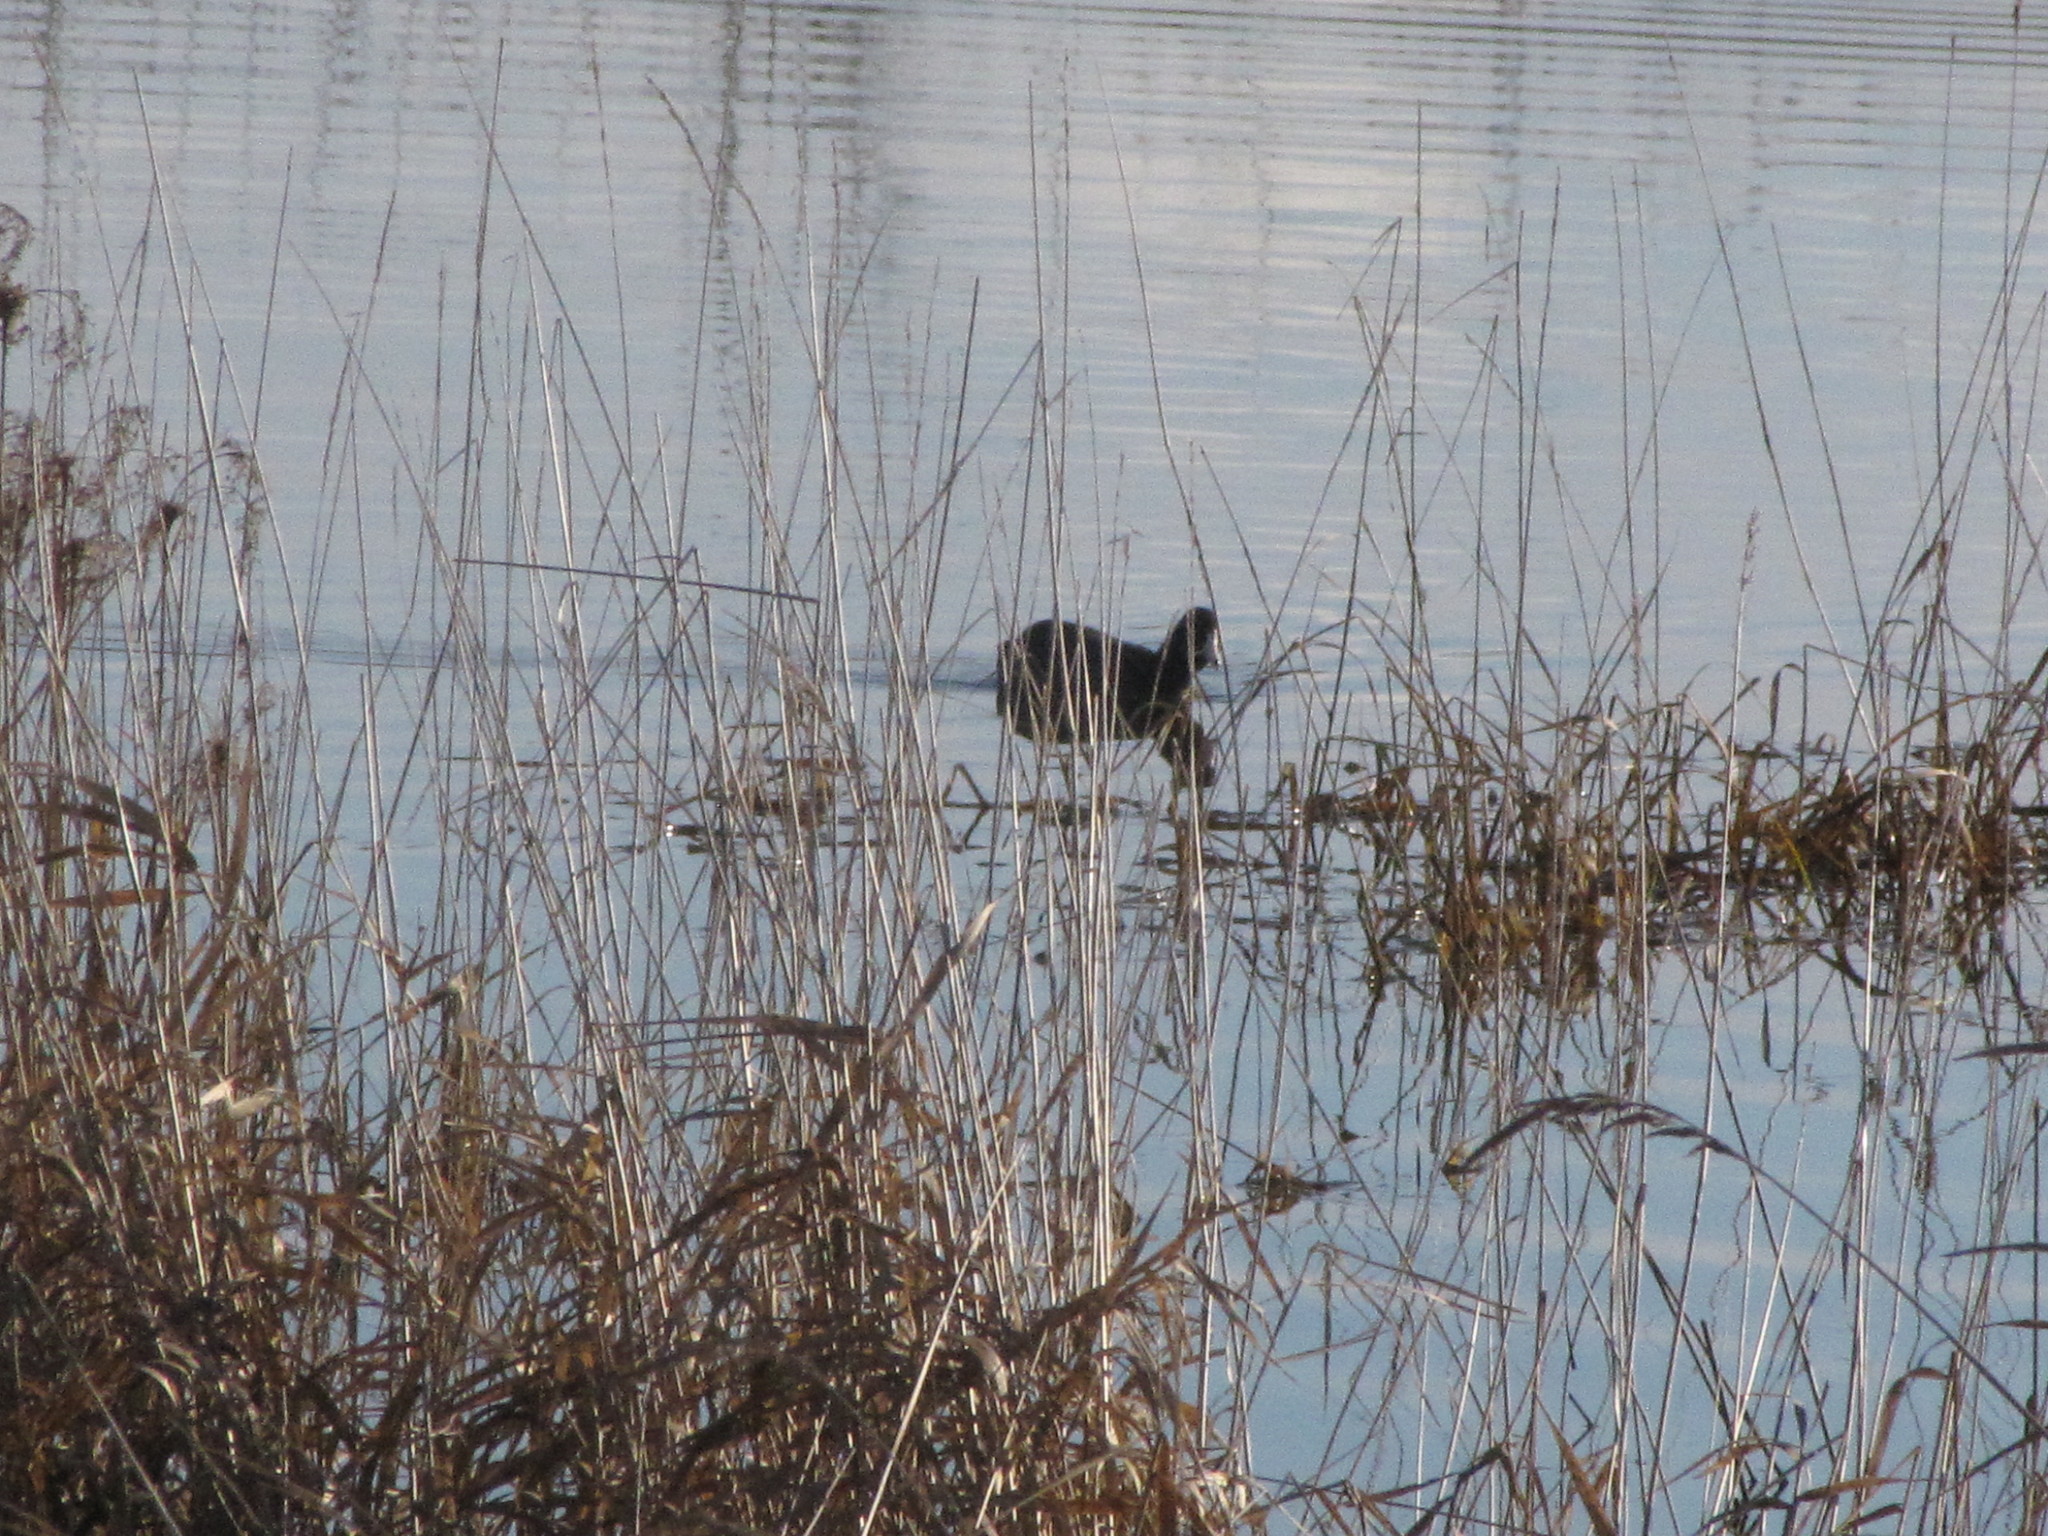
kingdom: Animalia
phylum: Chordata
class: Aves
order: Gruiformes
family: Rallidae
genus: Fulica
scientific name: Fulica americana
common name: American coot
